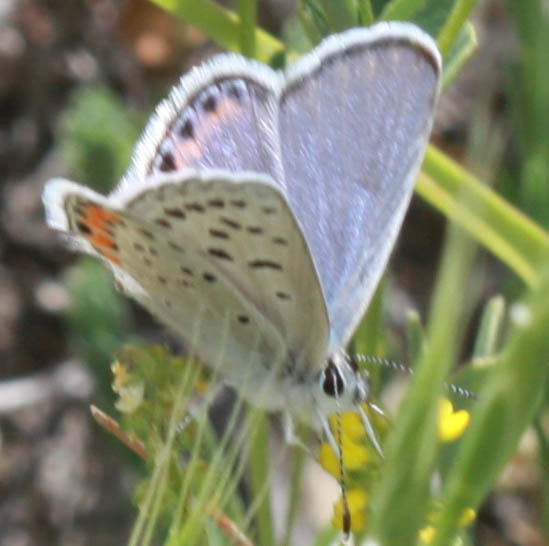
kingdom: Animalia
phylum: Arthropoda
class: Insecta
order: Lepidoptera
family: Lycaenidae
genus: Icaricia
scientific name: Icaricia acmon
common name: Acmon blue
